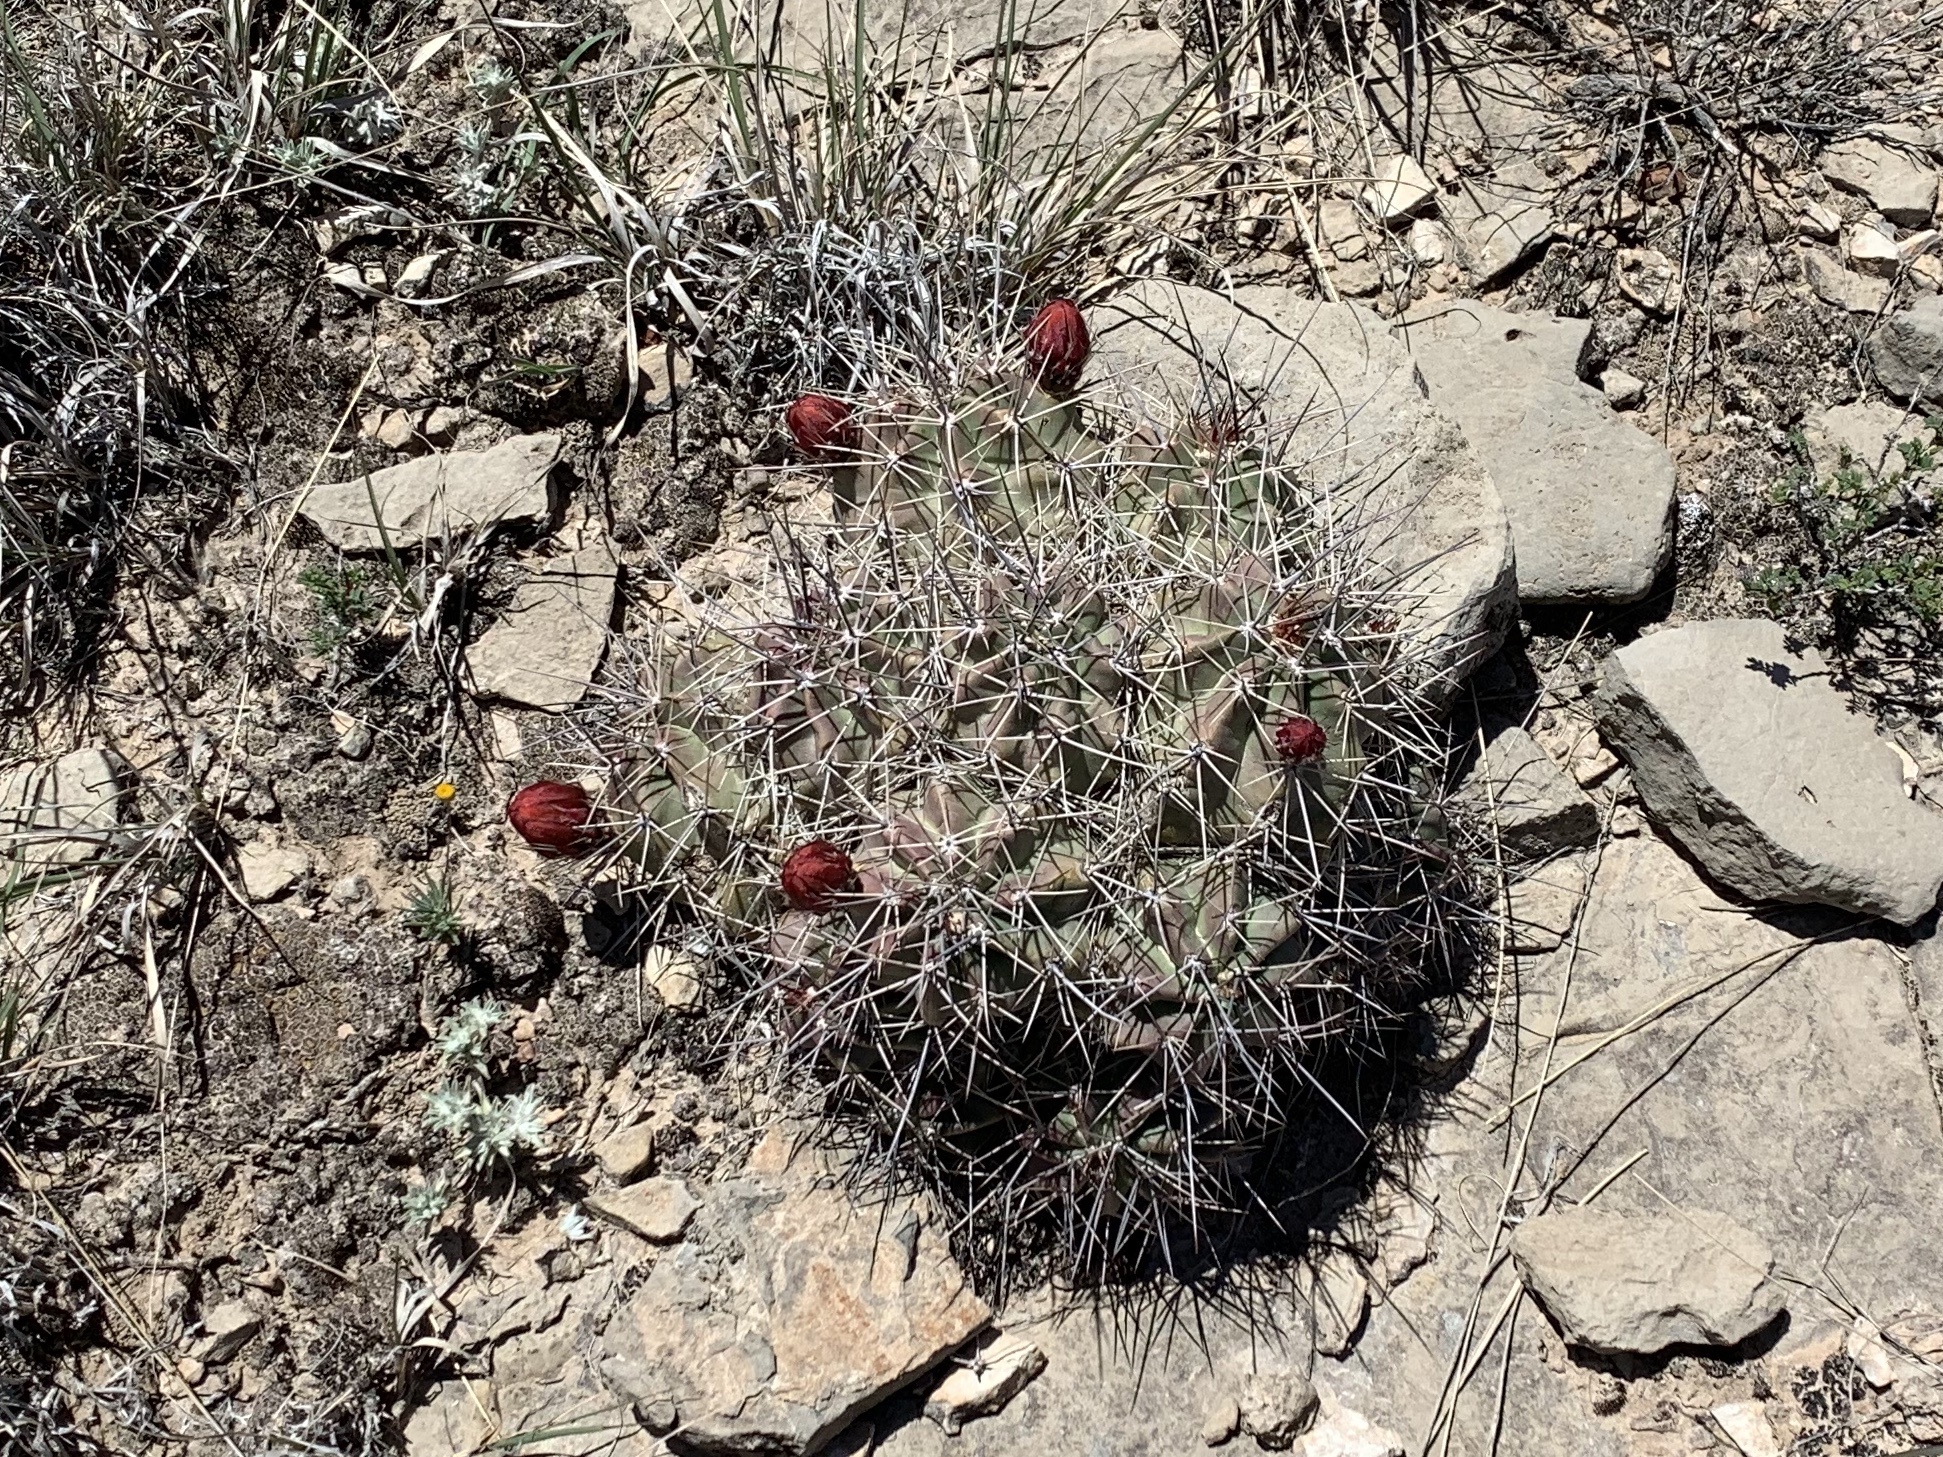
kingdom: Plantae
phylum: Tracheophyta
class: Magnoliopsida
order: Caryophyllales
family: Cactaceae
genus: Echinocereus
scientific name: Echinocereus coccineus
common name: Scarlet hedgehog cactus
